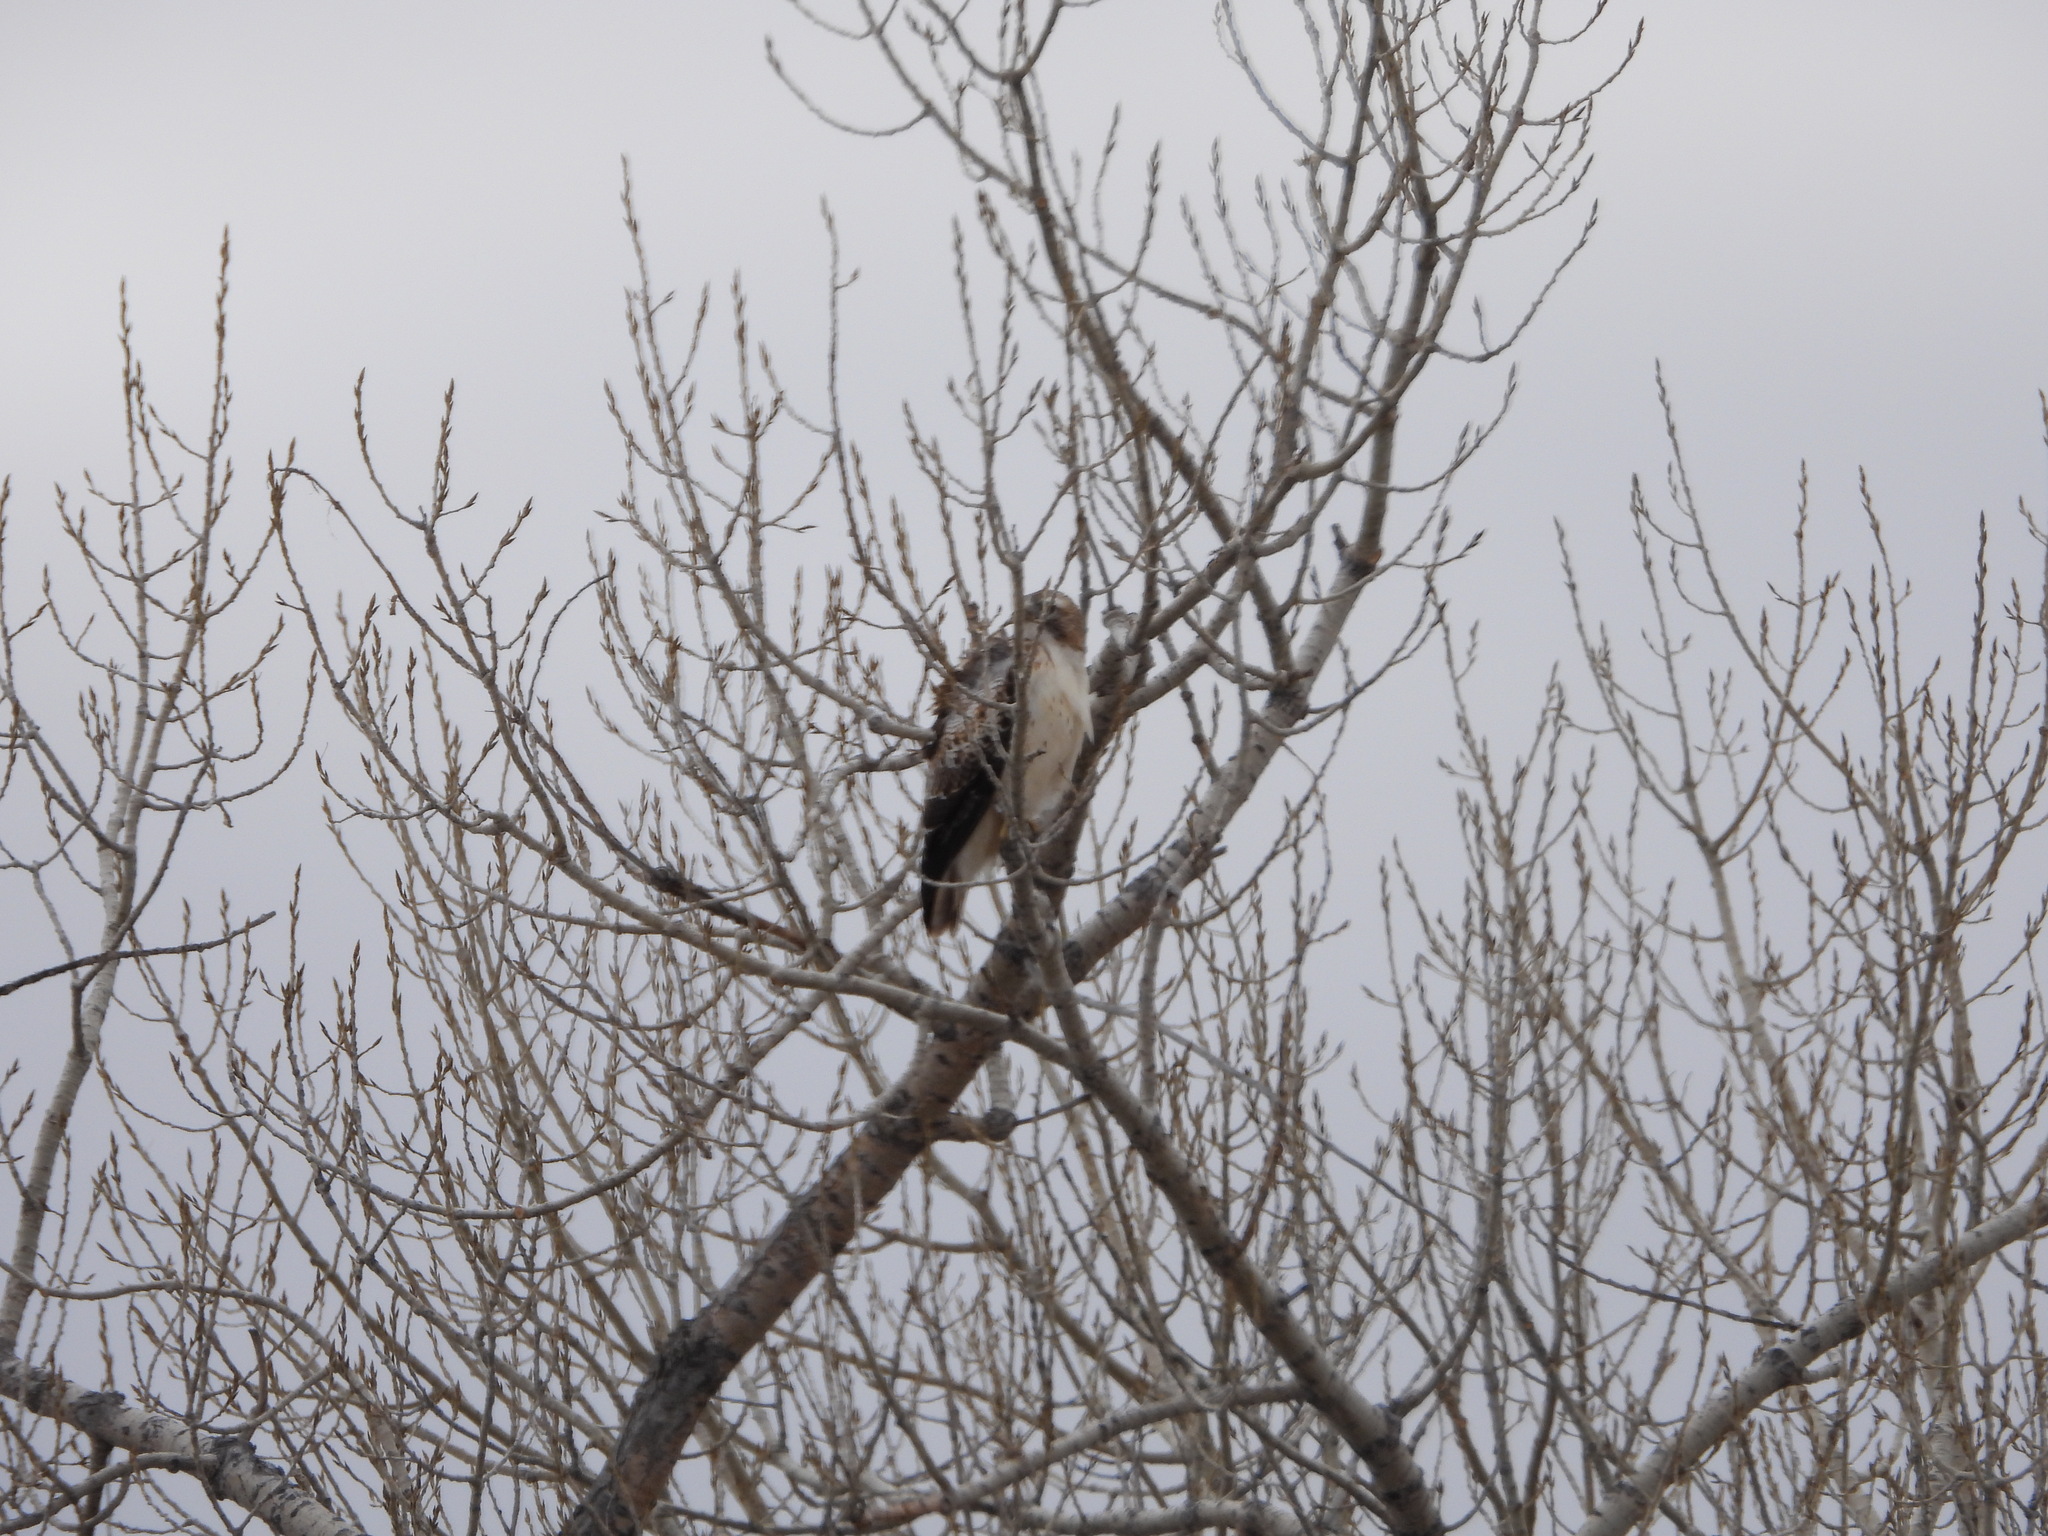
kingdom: Animalia
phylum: Chordata
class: Aves
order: Accipitriformes
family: Accipitridae
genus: Buteo
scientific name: Buteo jamaicensis
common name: Red-tailed hawk
